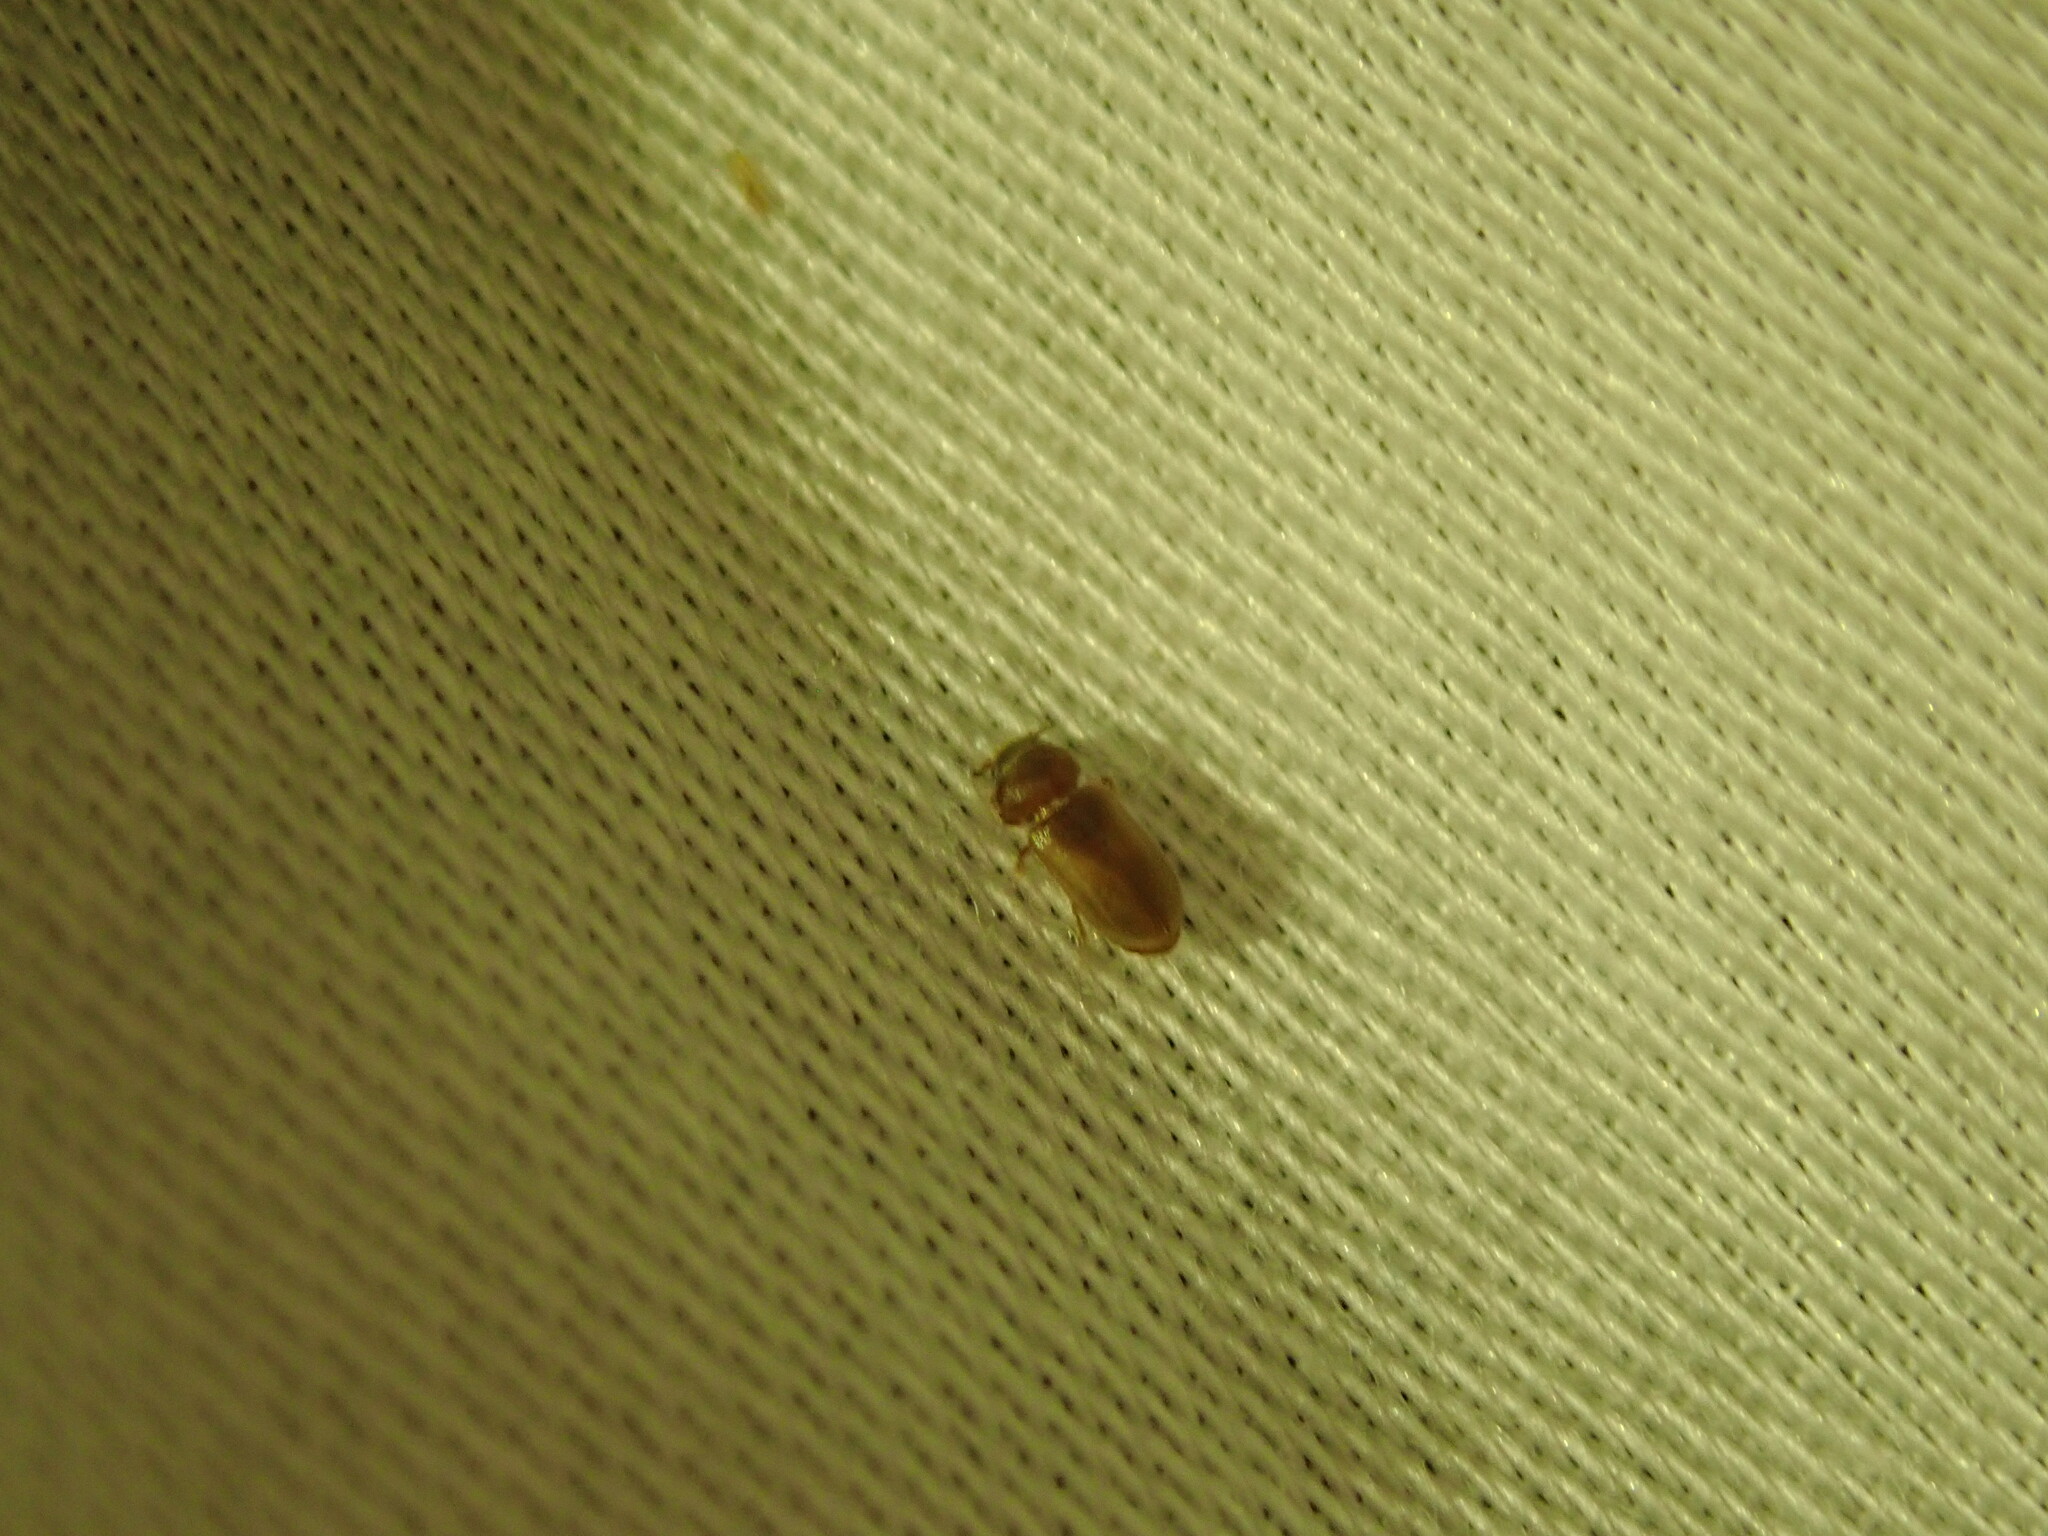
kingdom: Animalia
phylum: Arthropoda
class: Insecta
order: Coleoptera
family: Heteroceridae
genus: Tropicus
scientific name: Tropicus pusillus
